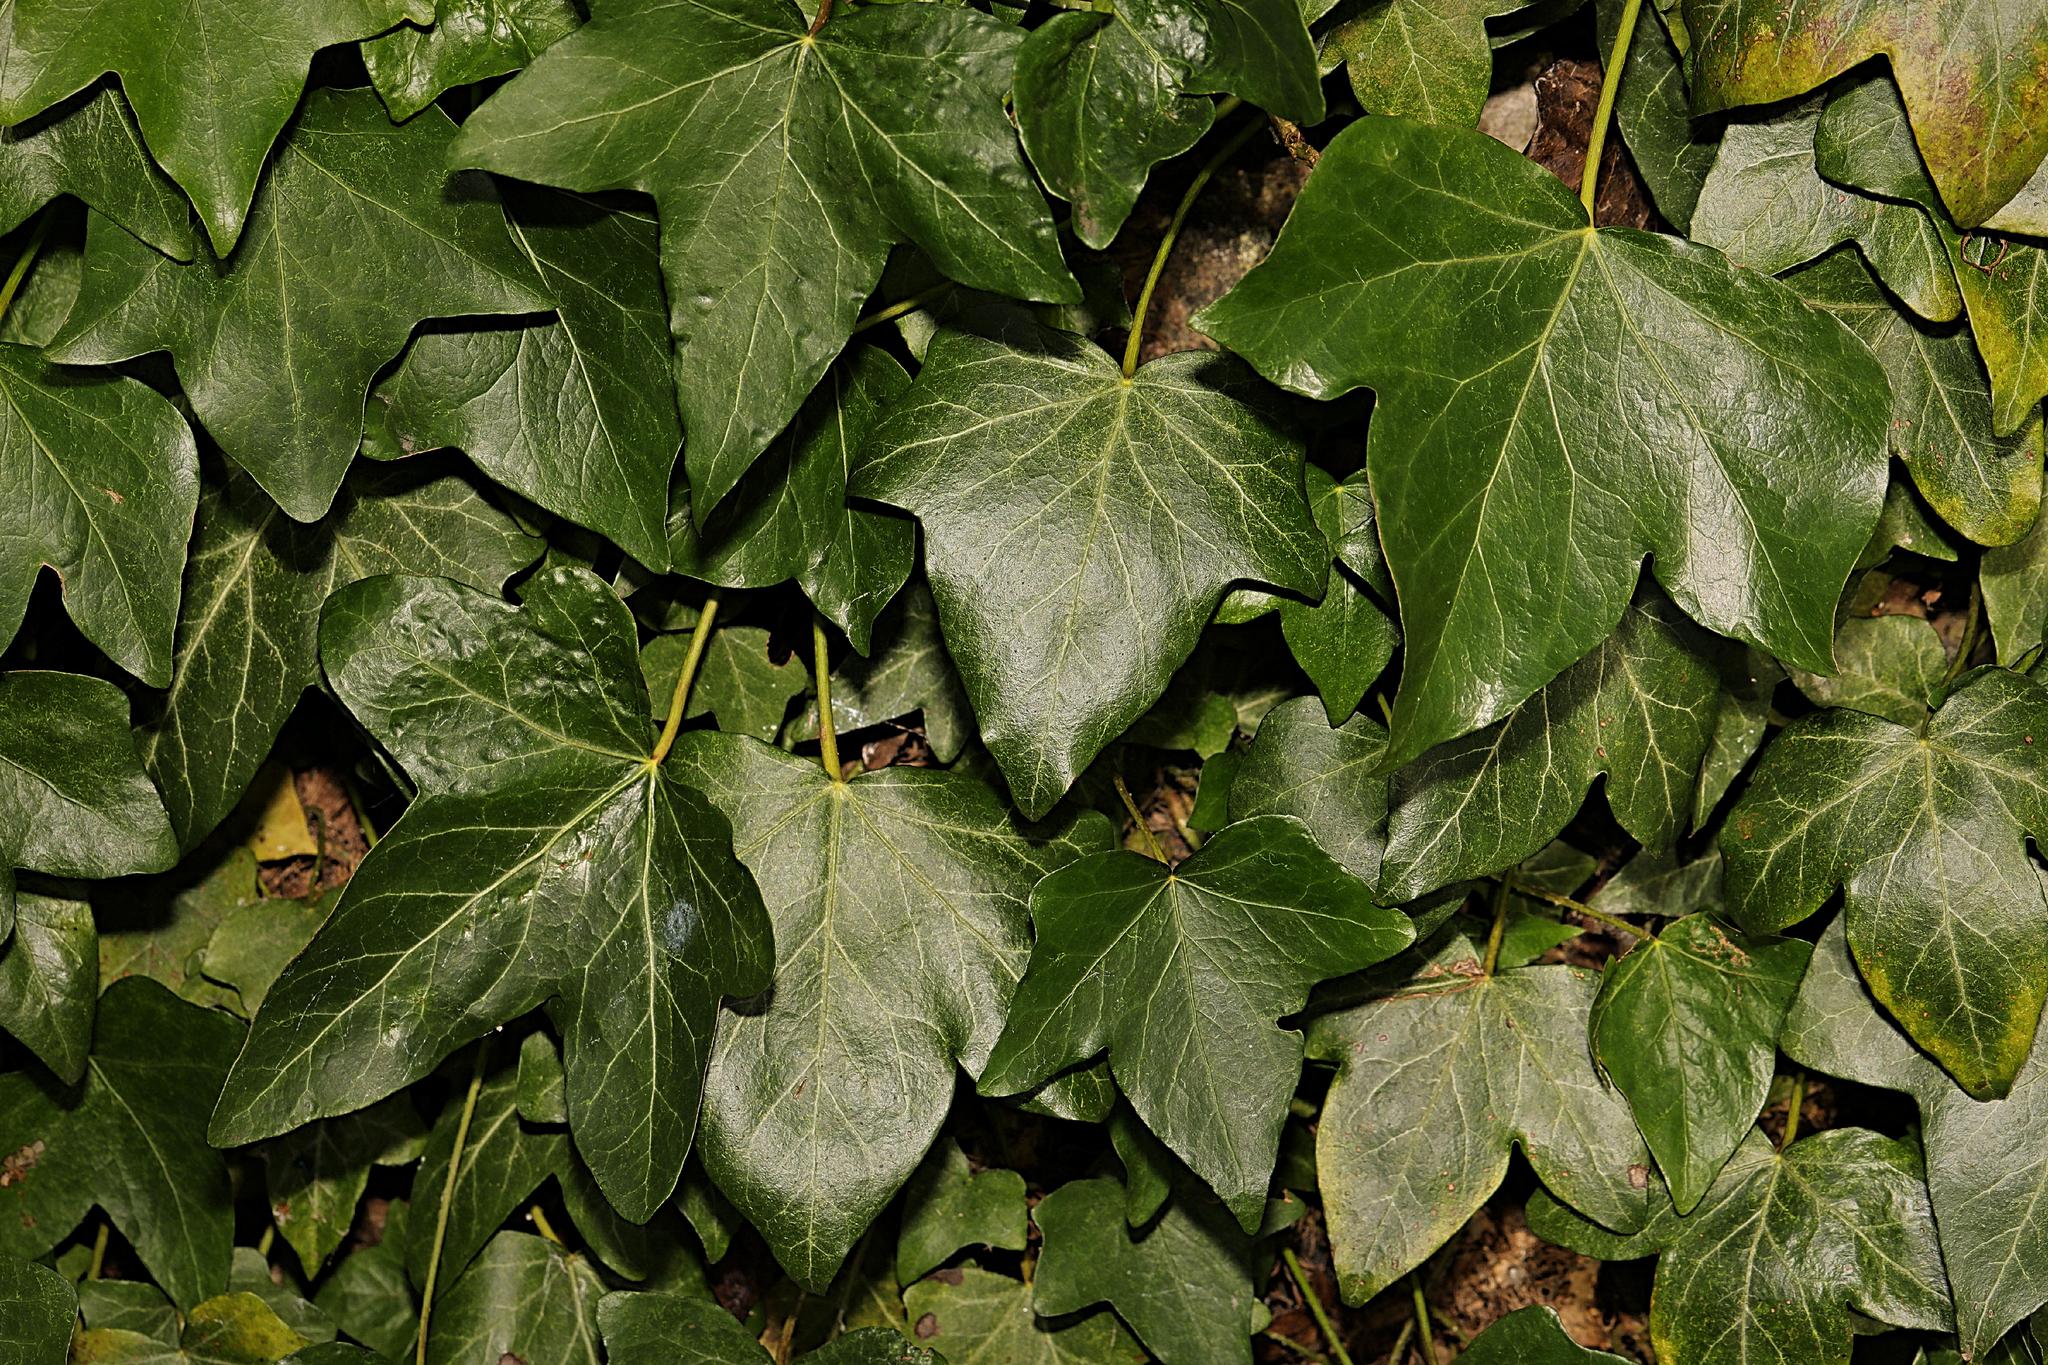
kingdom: Plantae
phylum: Tracheophyta
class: Magnoliopsida
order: Apiales
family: Araliaceae
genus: Hedera
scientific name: Hedera helix
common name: Ivy
